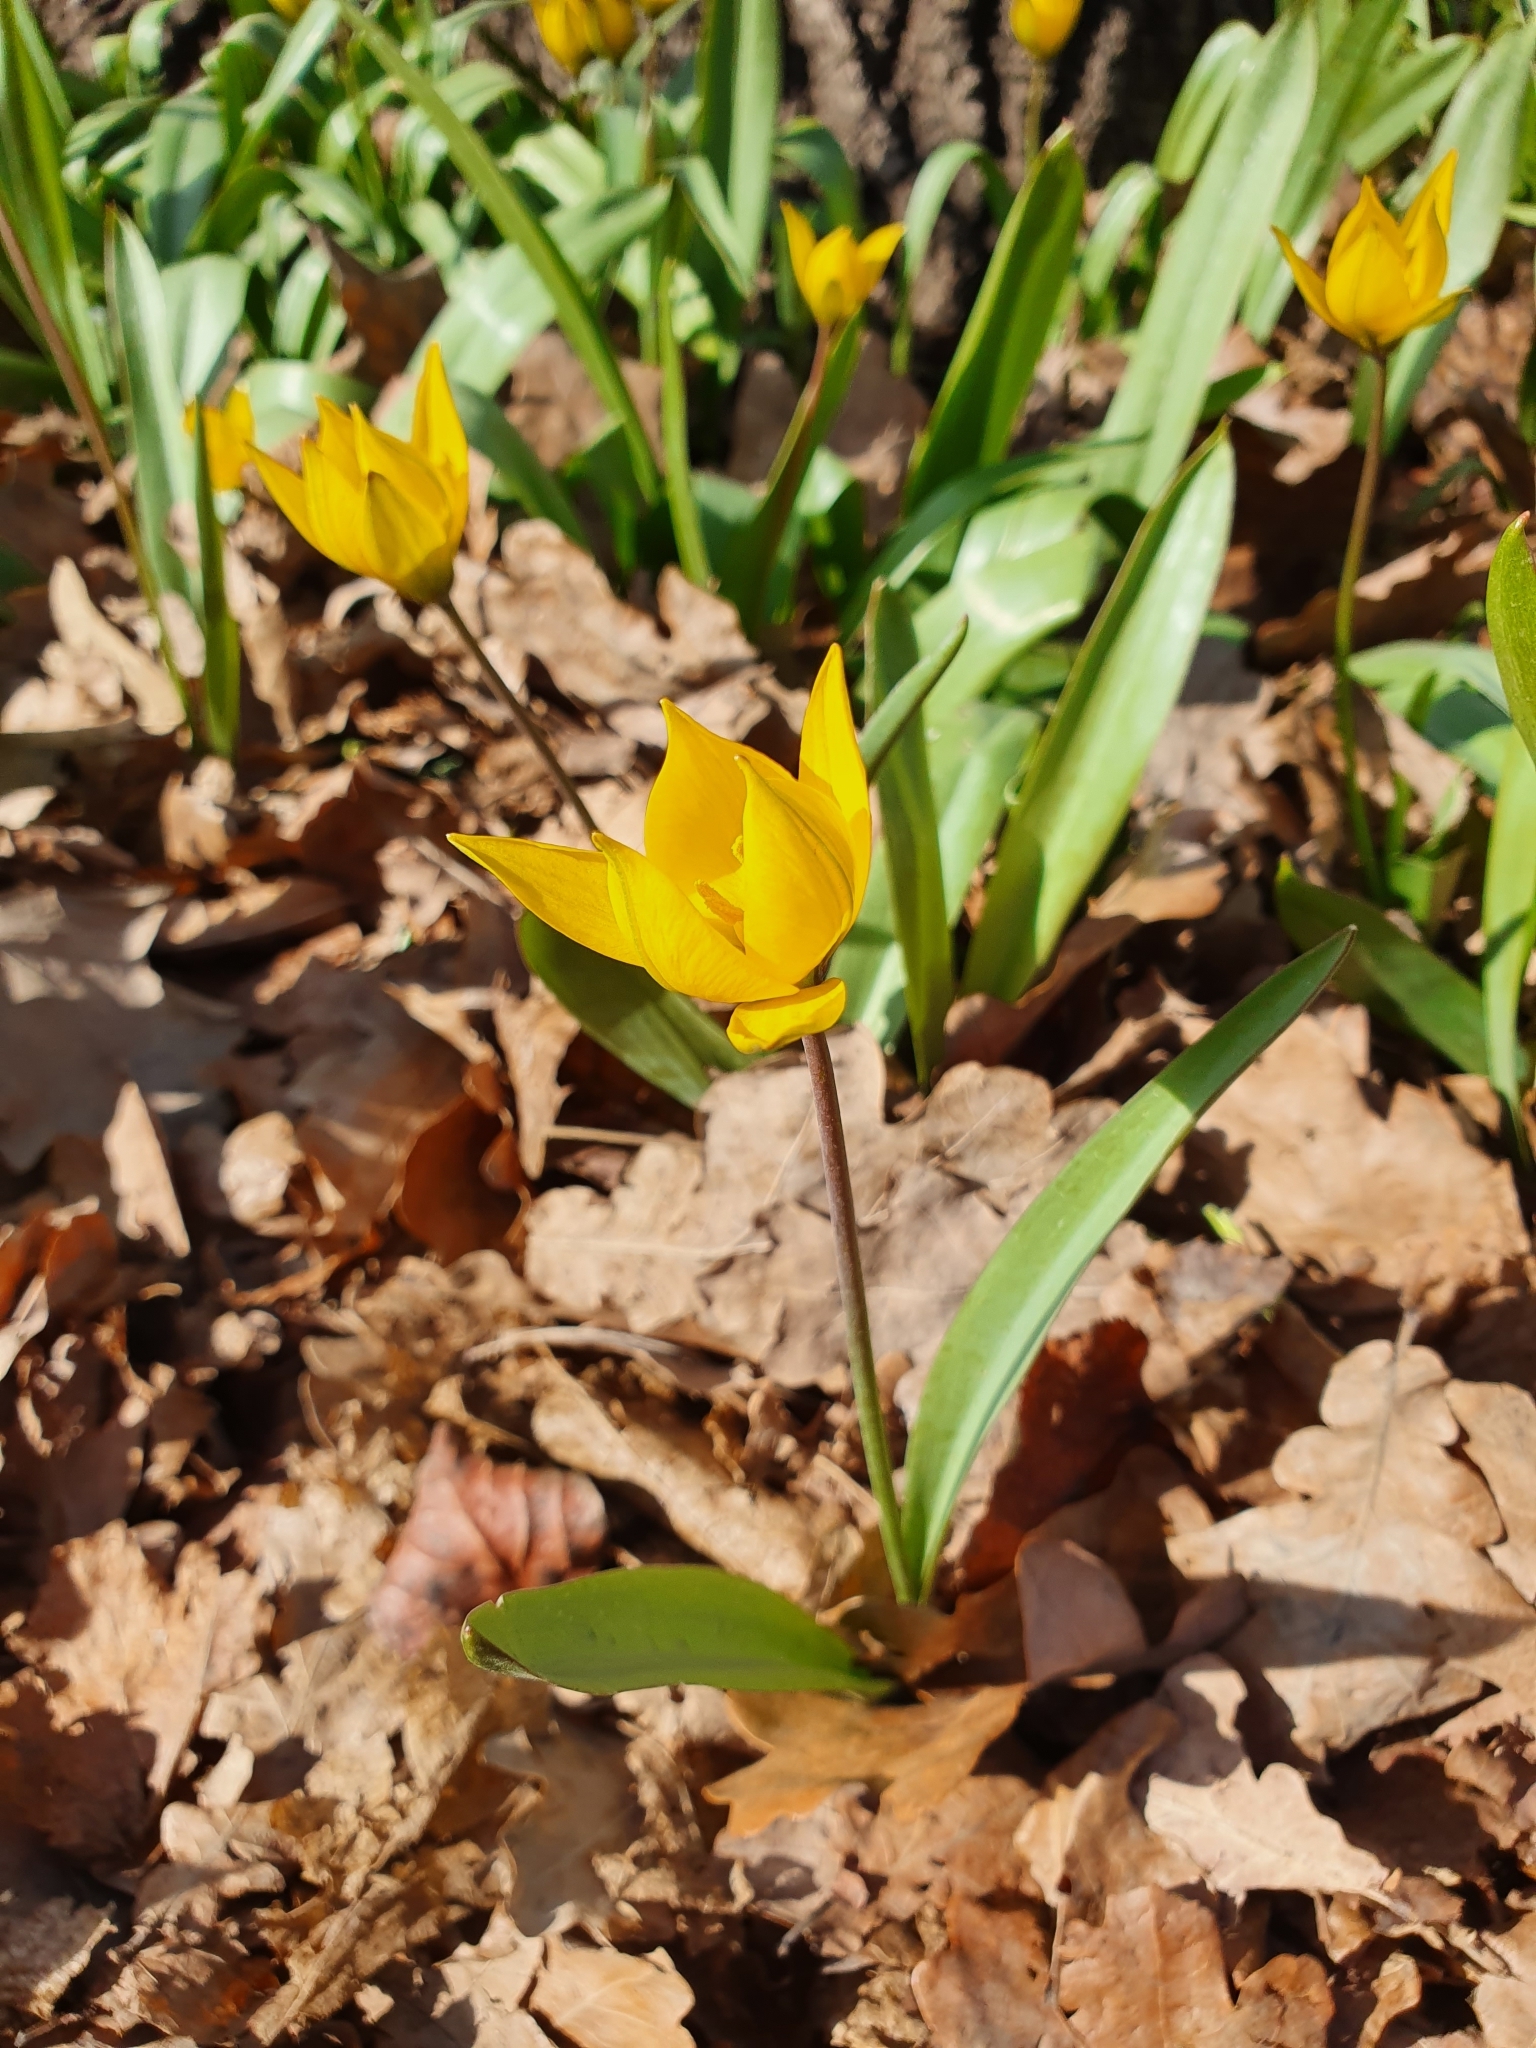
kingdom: Plantae
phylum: Tracheophyta
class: Liliopsida
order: Liliales
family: Liliaceae
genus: Tulipa
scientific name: Tulipa sylvestris
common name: Wild tulip
